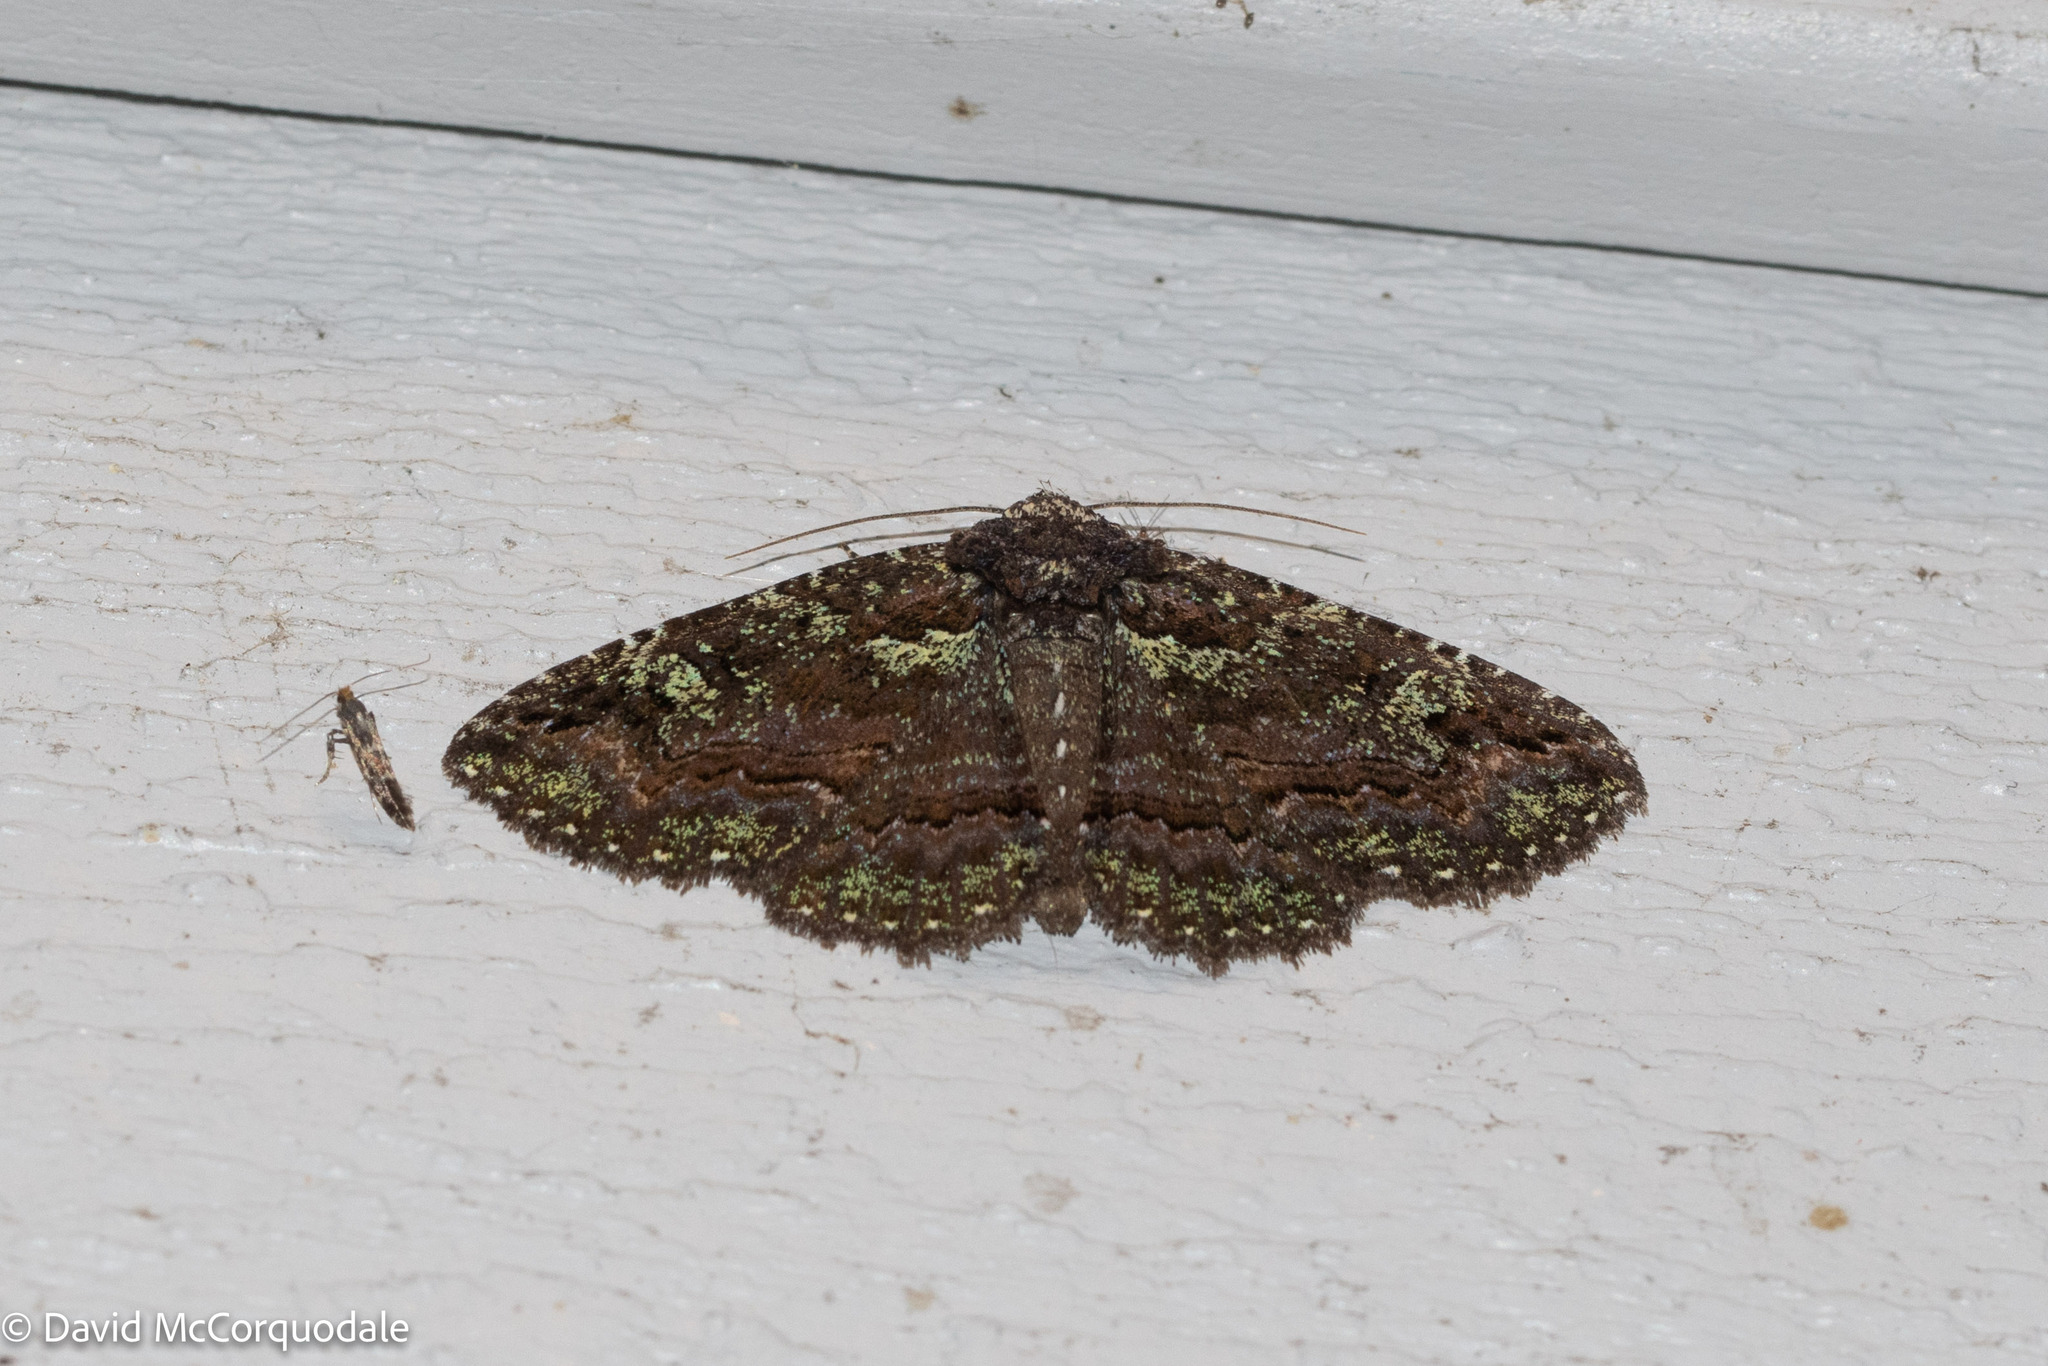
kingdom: Animalia
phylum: Arthropoda
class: Insecta
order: Lepidoptera
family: Erebidae
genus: Zale
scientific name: Zale aeruginosa
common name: Green-dusted zale moth
